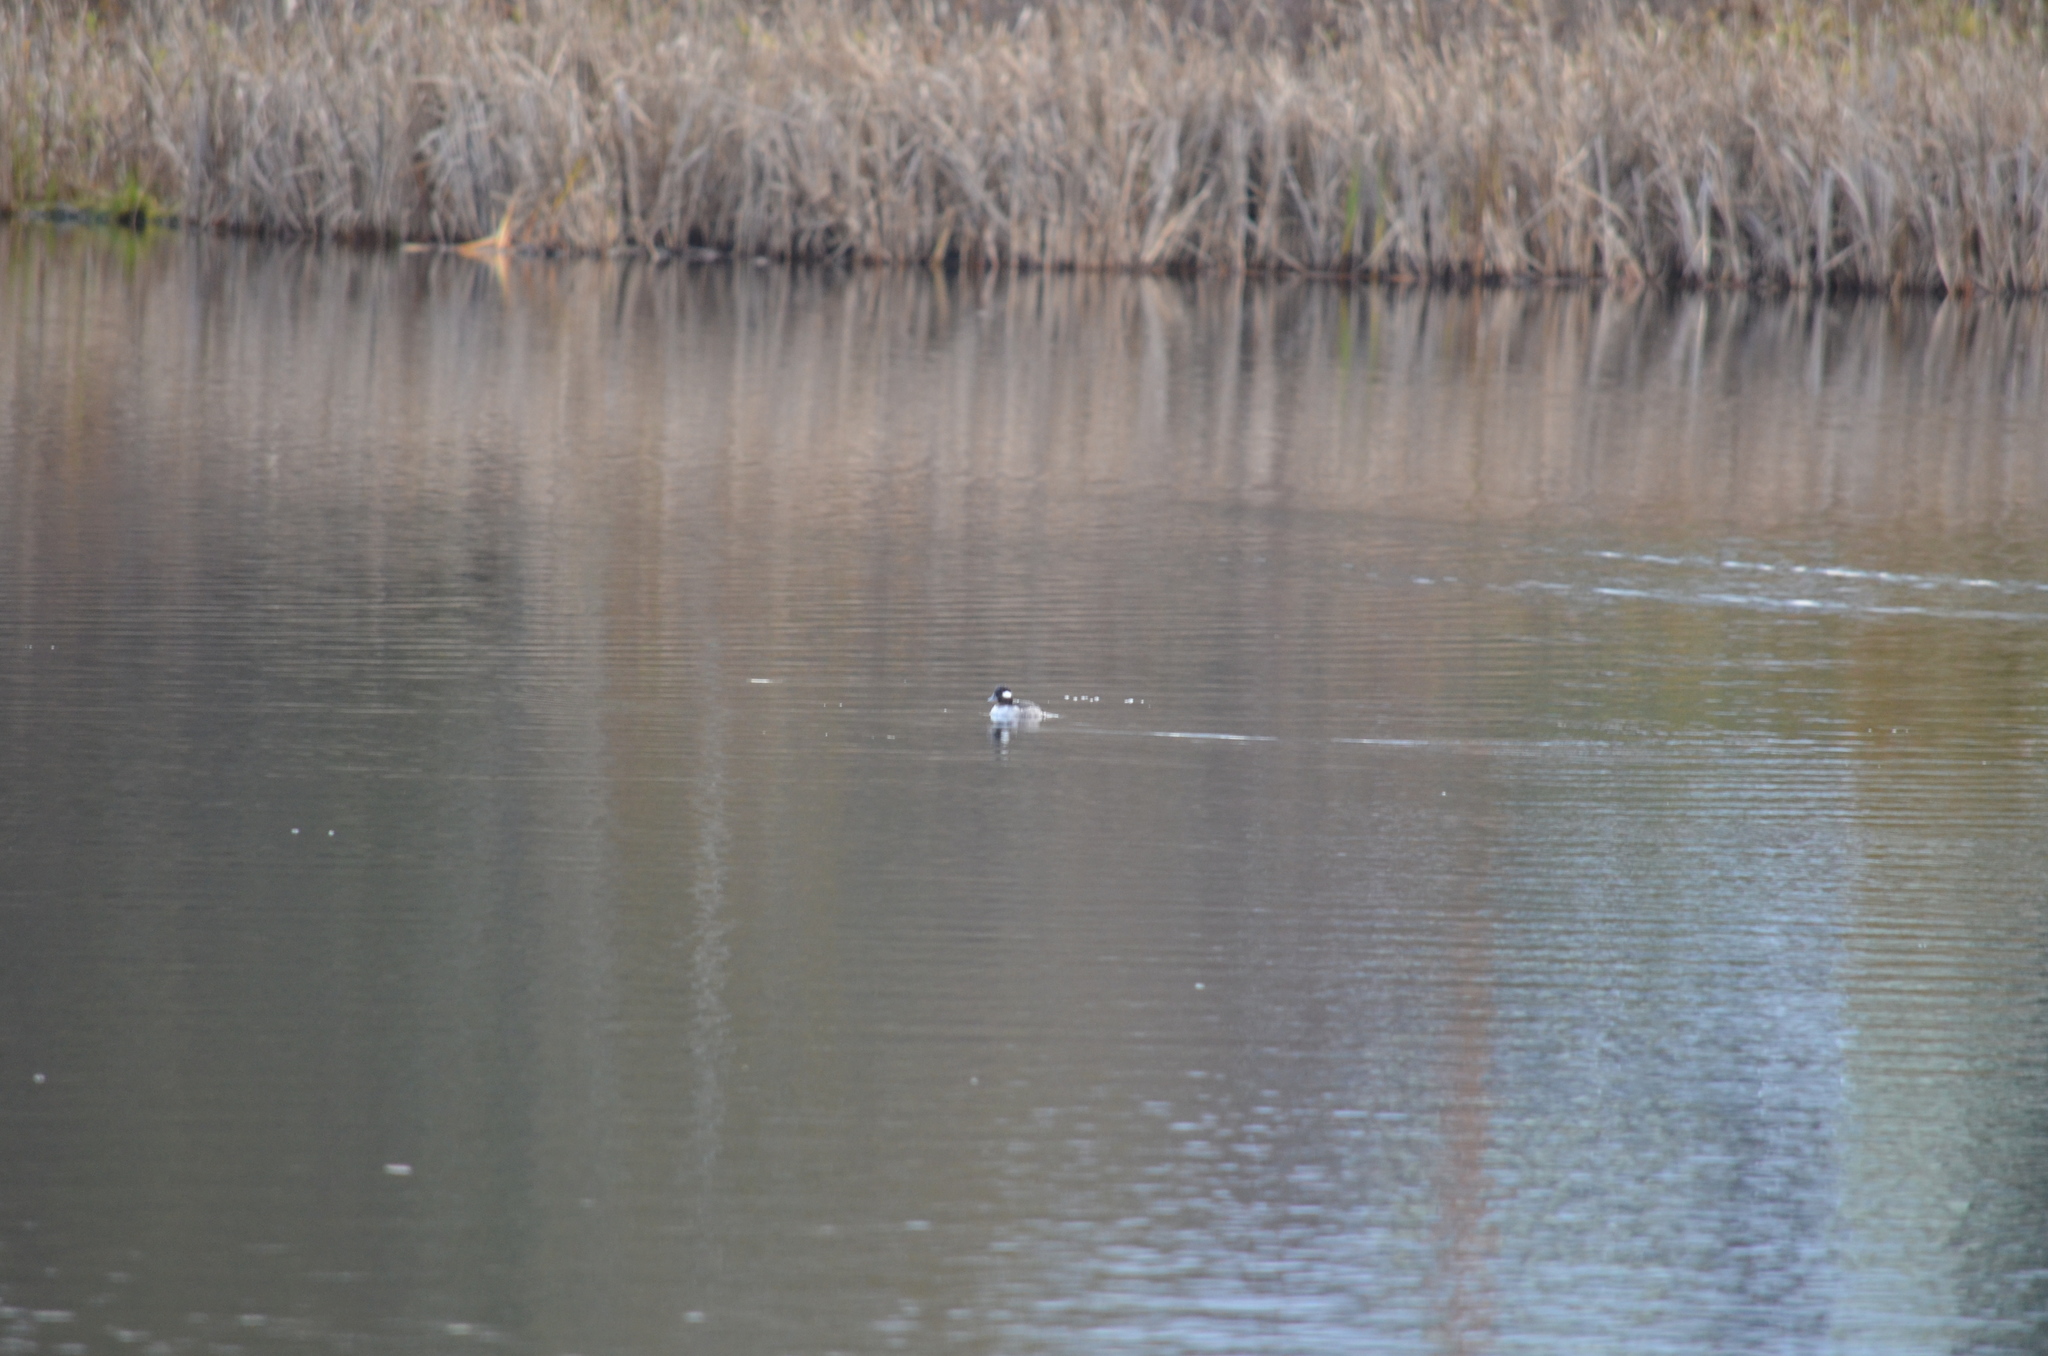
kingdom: Animalia
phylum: Chordata
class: Aves
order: Anseriformes
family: Anatidae
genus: Bucephala
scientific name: Bucephala albeola
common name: Bufflehead
